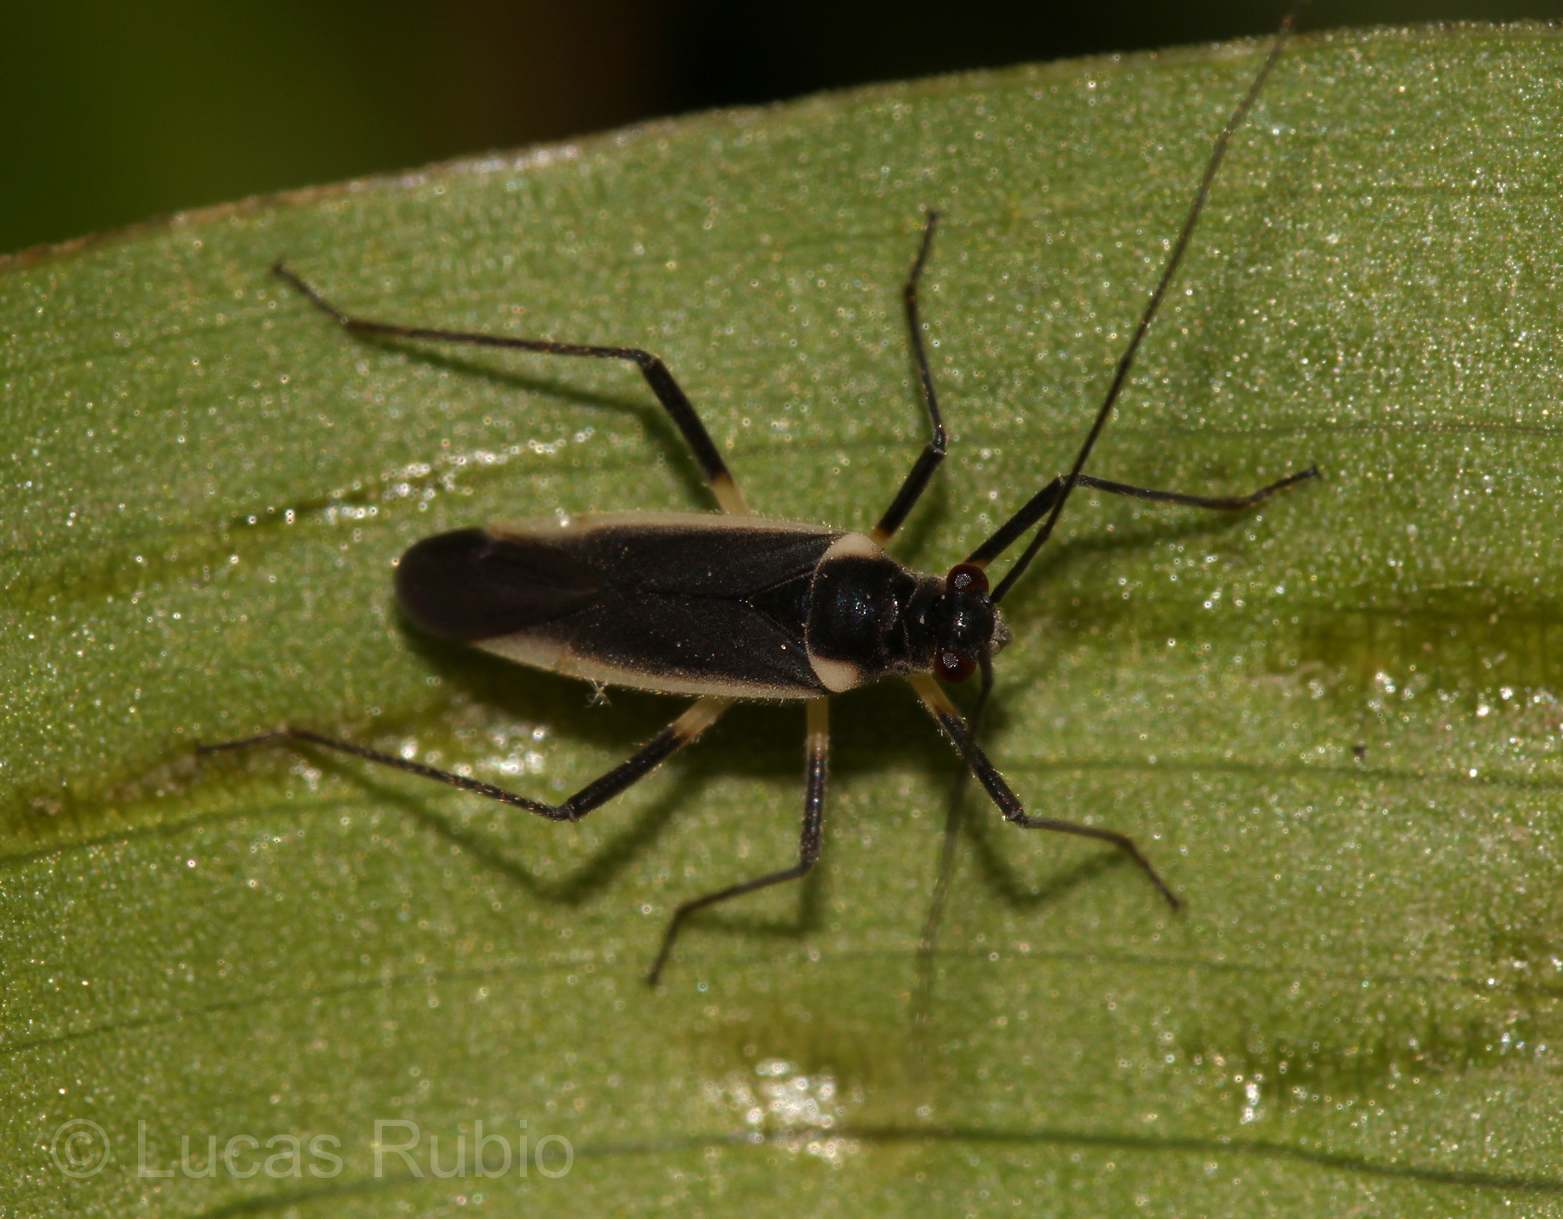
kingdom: Animalia
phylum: Arthropoda
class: Insecta
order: Hemiptera
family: Miridae
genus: Prepops
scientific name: Prepops flavicostus
